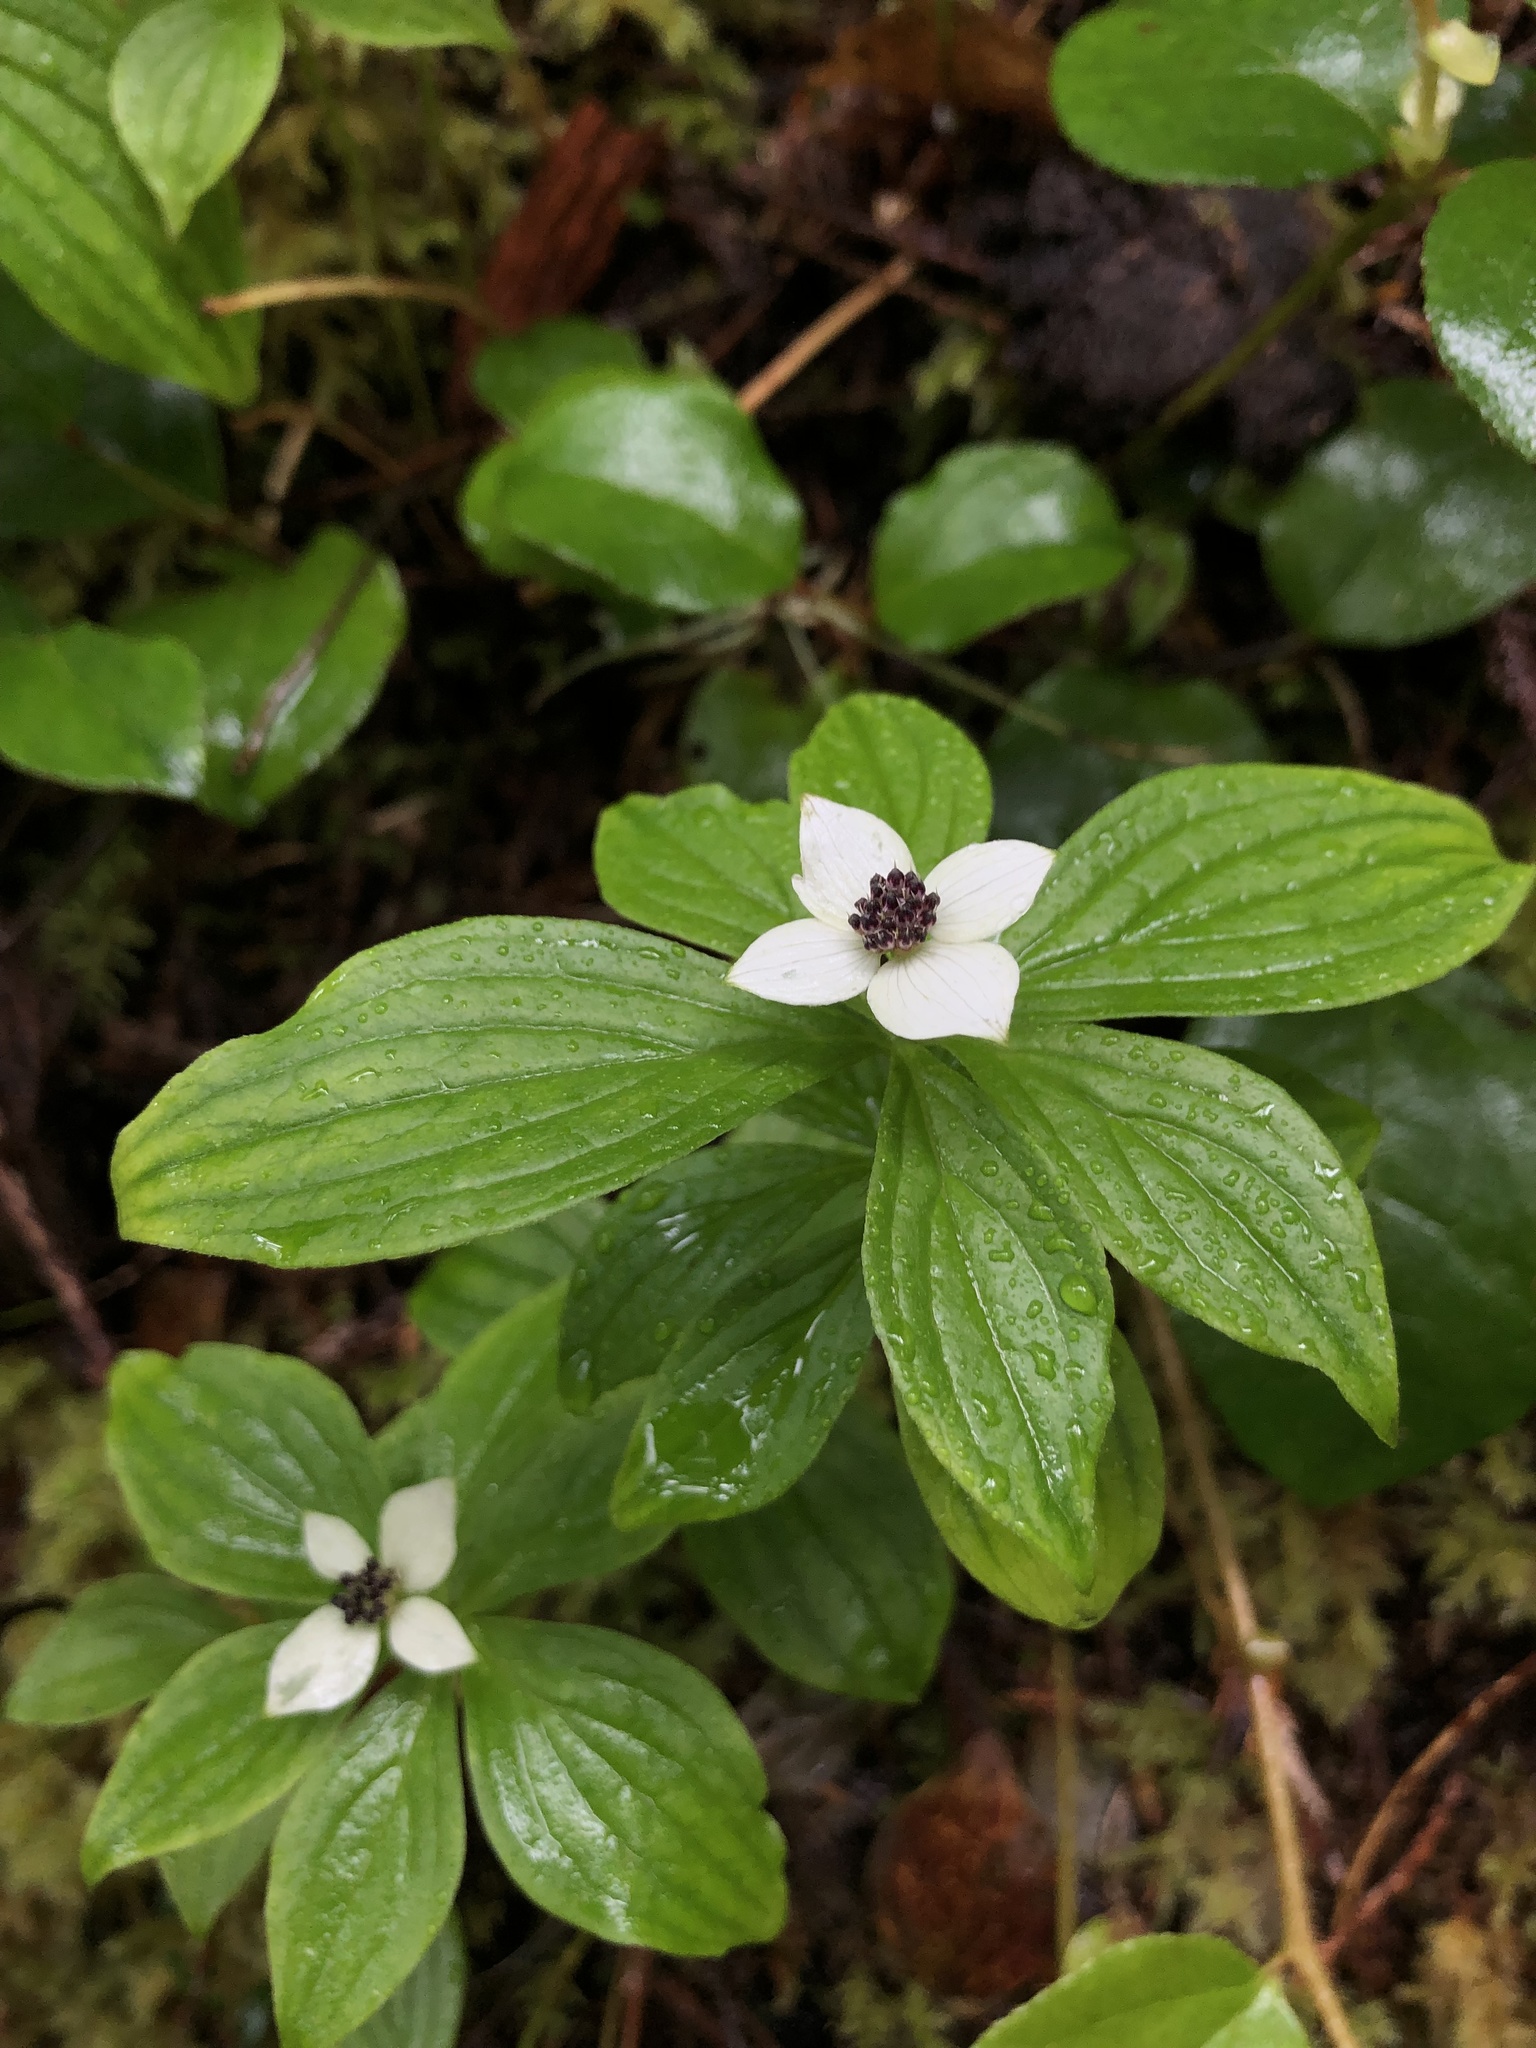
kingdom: Plantae
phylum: Tracheophyta
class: Magnoliopsida
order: Cornales
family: Cornaceae
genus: Cornus
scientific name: Cornus unalaschkensis
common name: Alaska bunchberry
